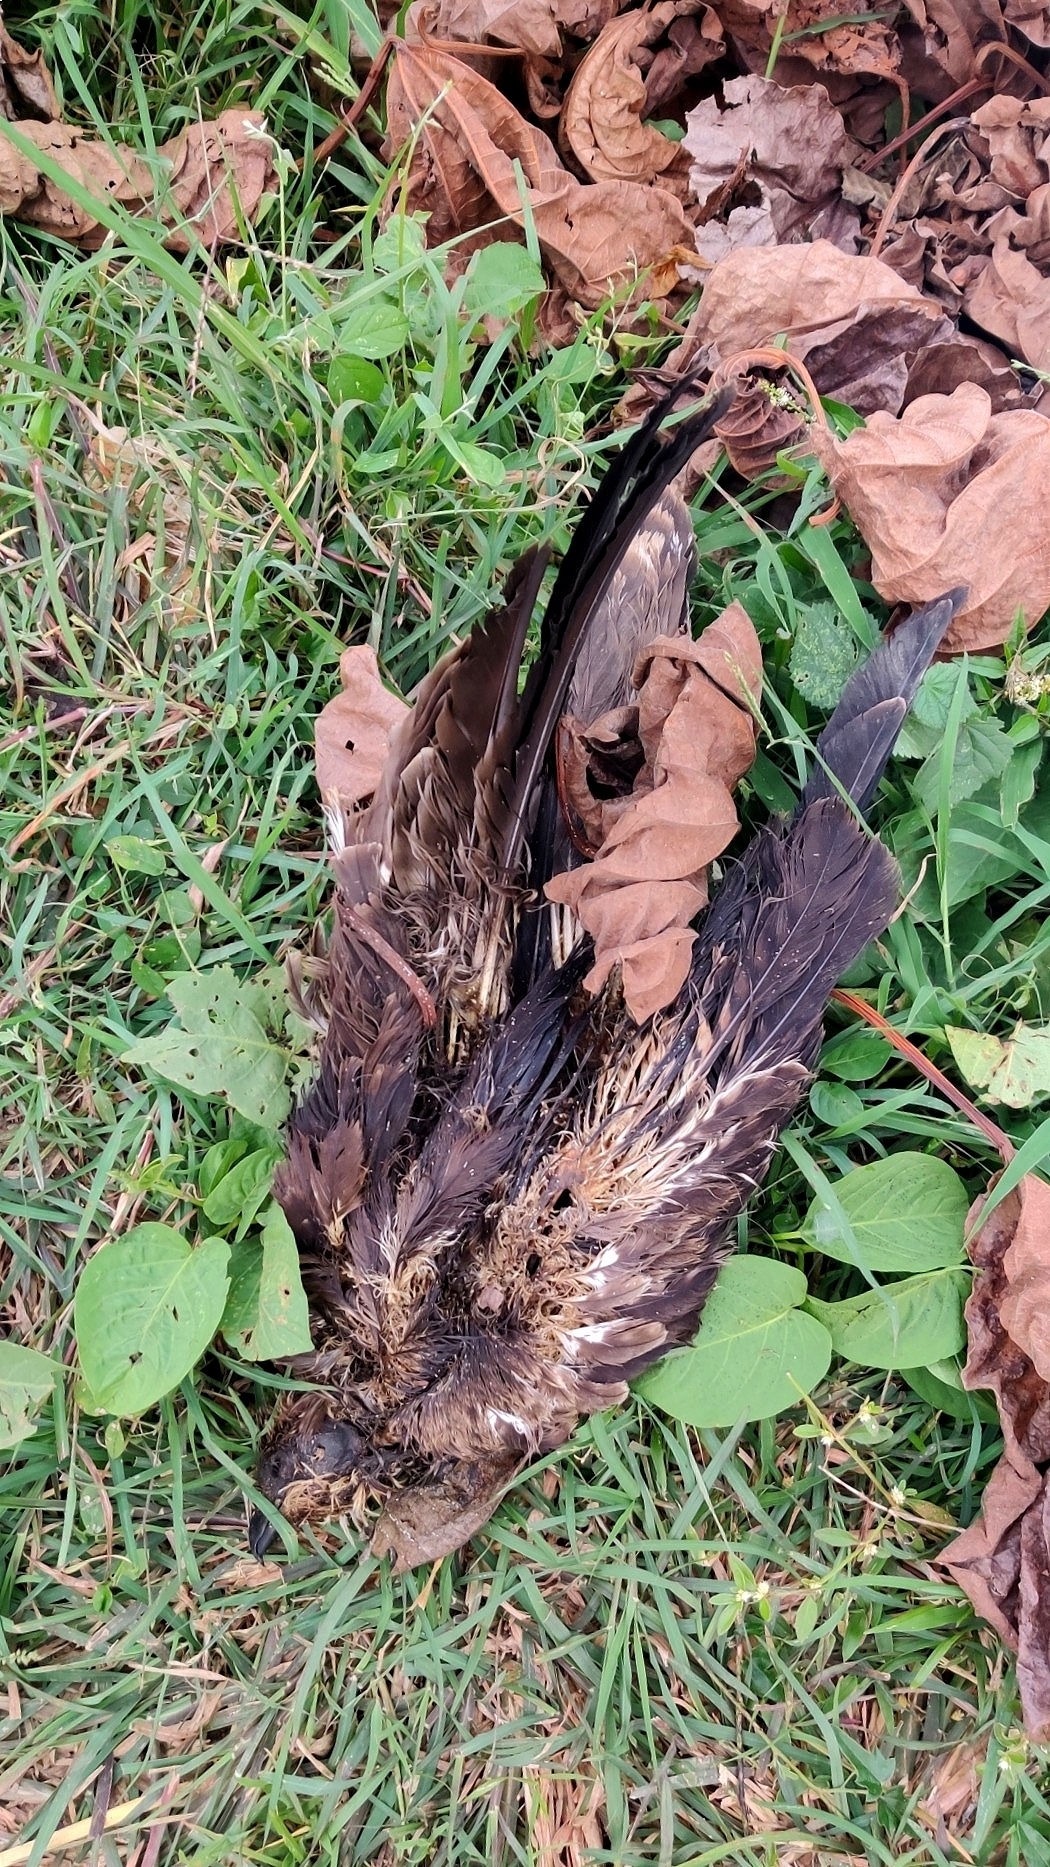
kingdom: Animalia
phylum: Chordata
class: Aves
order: Accipitriformes
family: Accipitridae
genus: Milvus
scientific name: Milvus migrans
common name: Black kite
